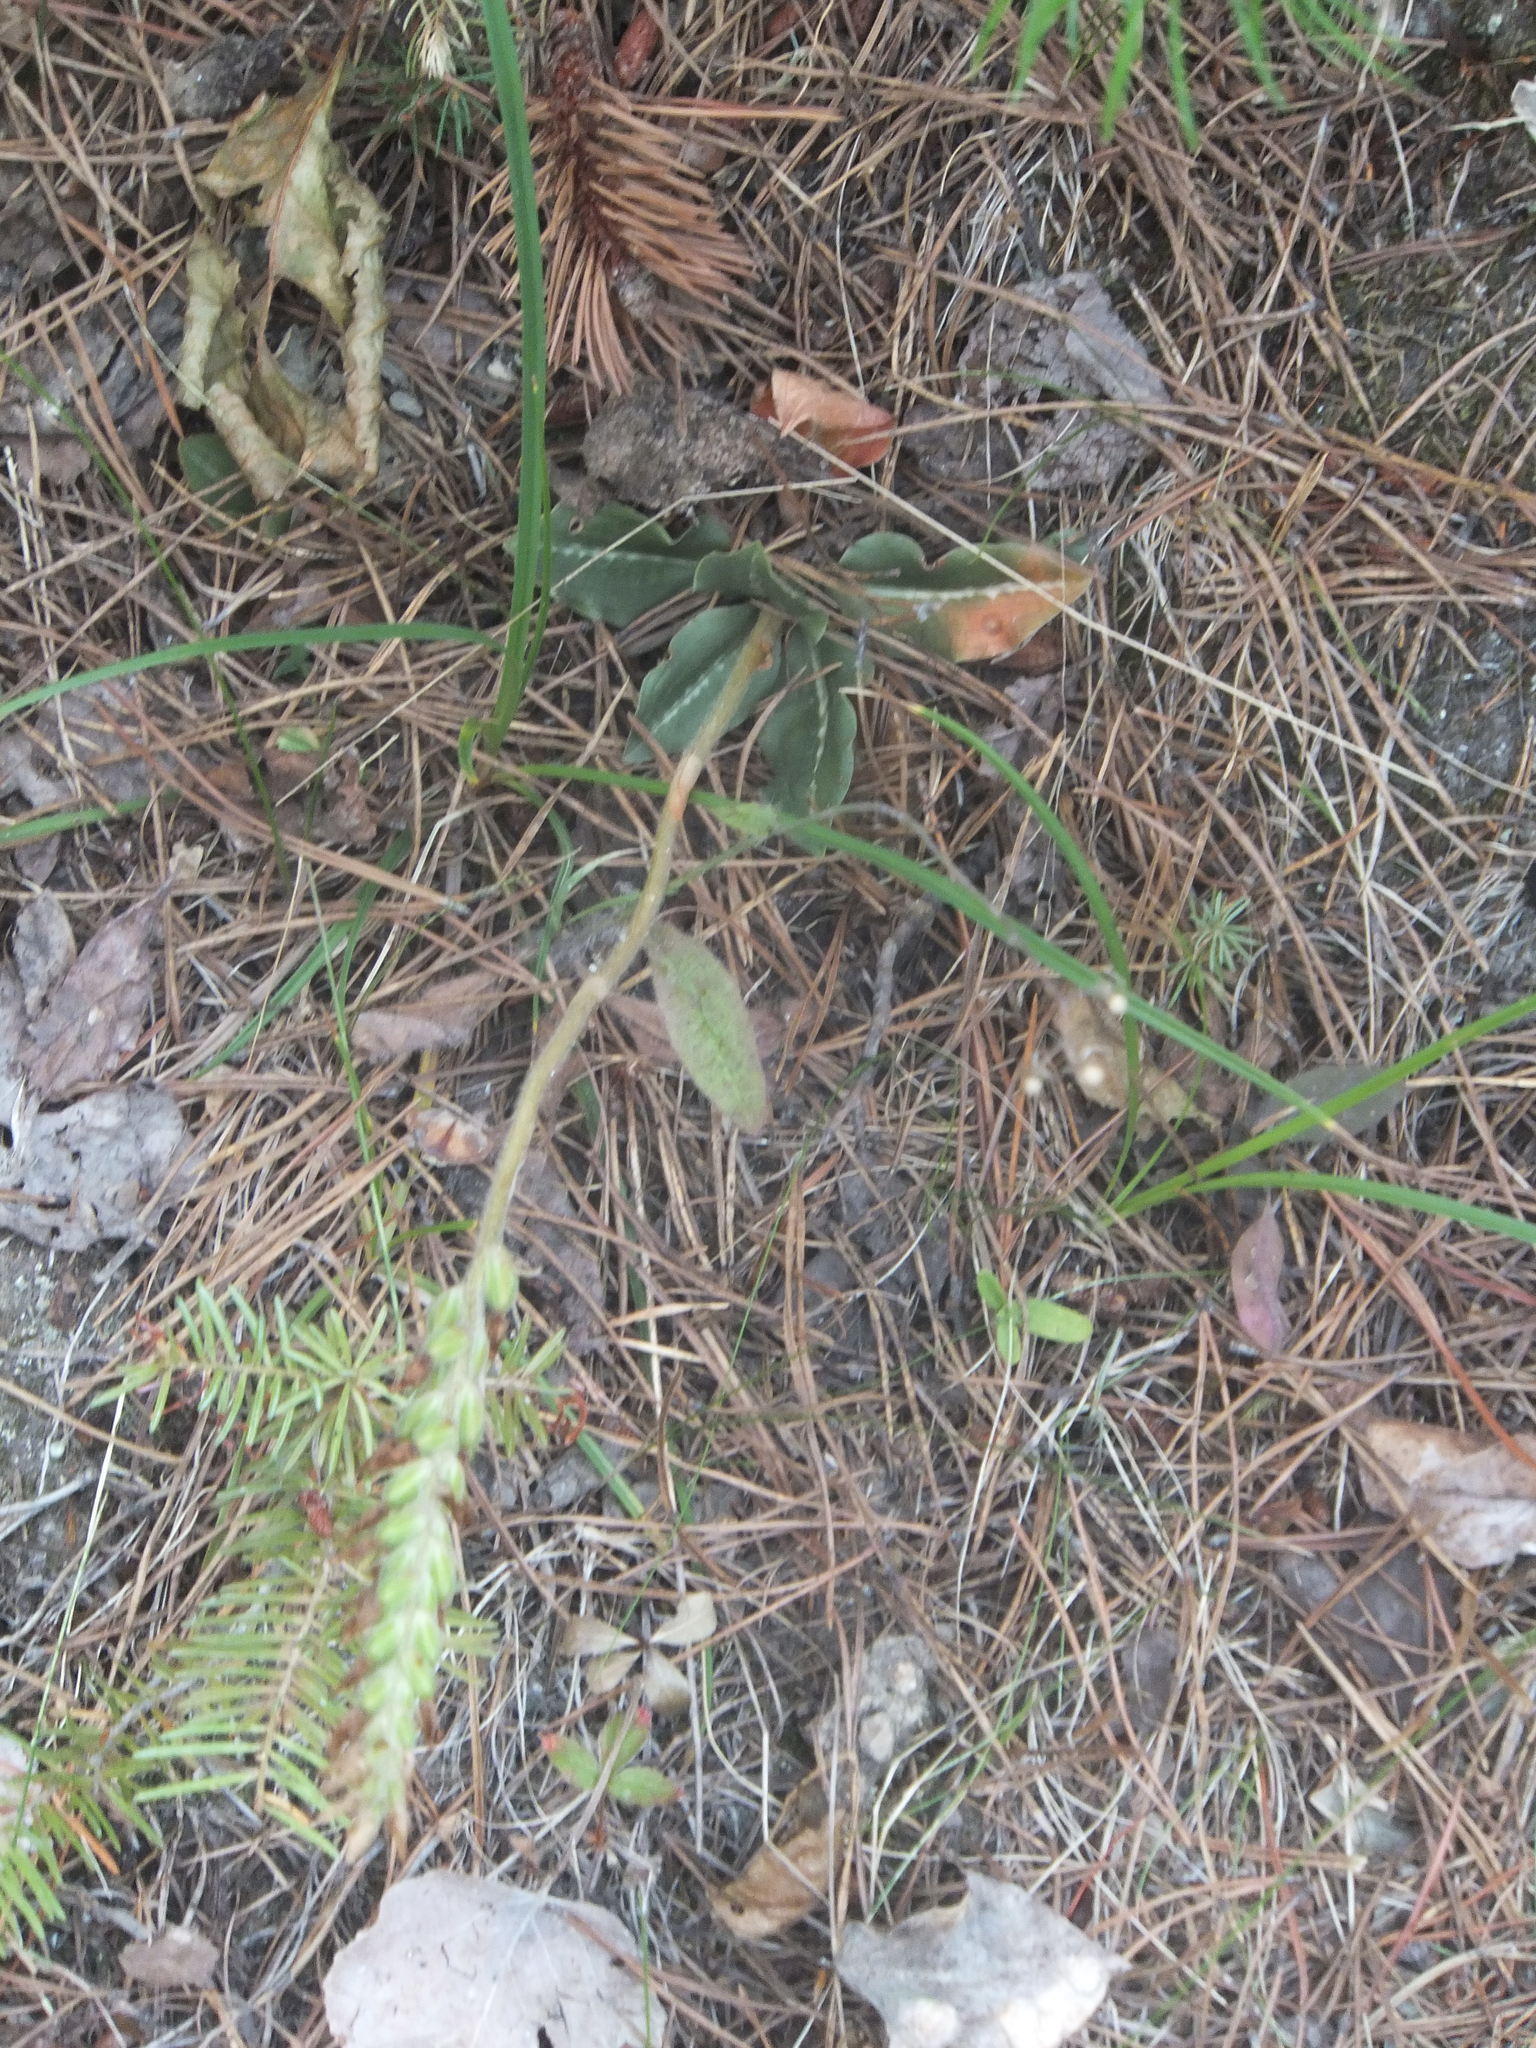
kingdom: Plantae
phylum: Tracheophyta
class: Liliopsida
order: Asparagales
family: Orchidaceae
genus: Goodyera
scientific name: Goodyera oblongifolia
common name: Giant rattlesnake-plantain
